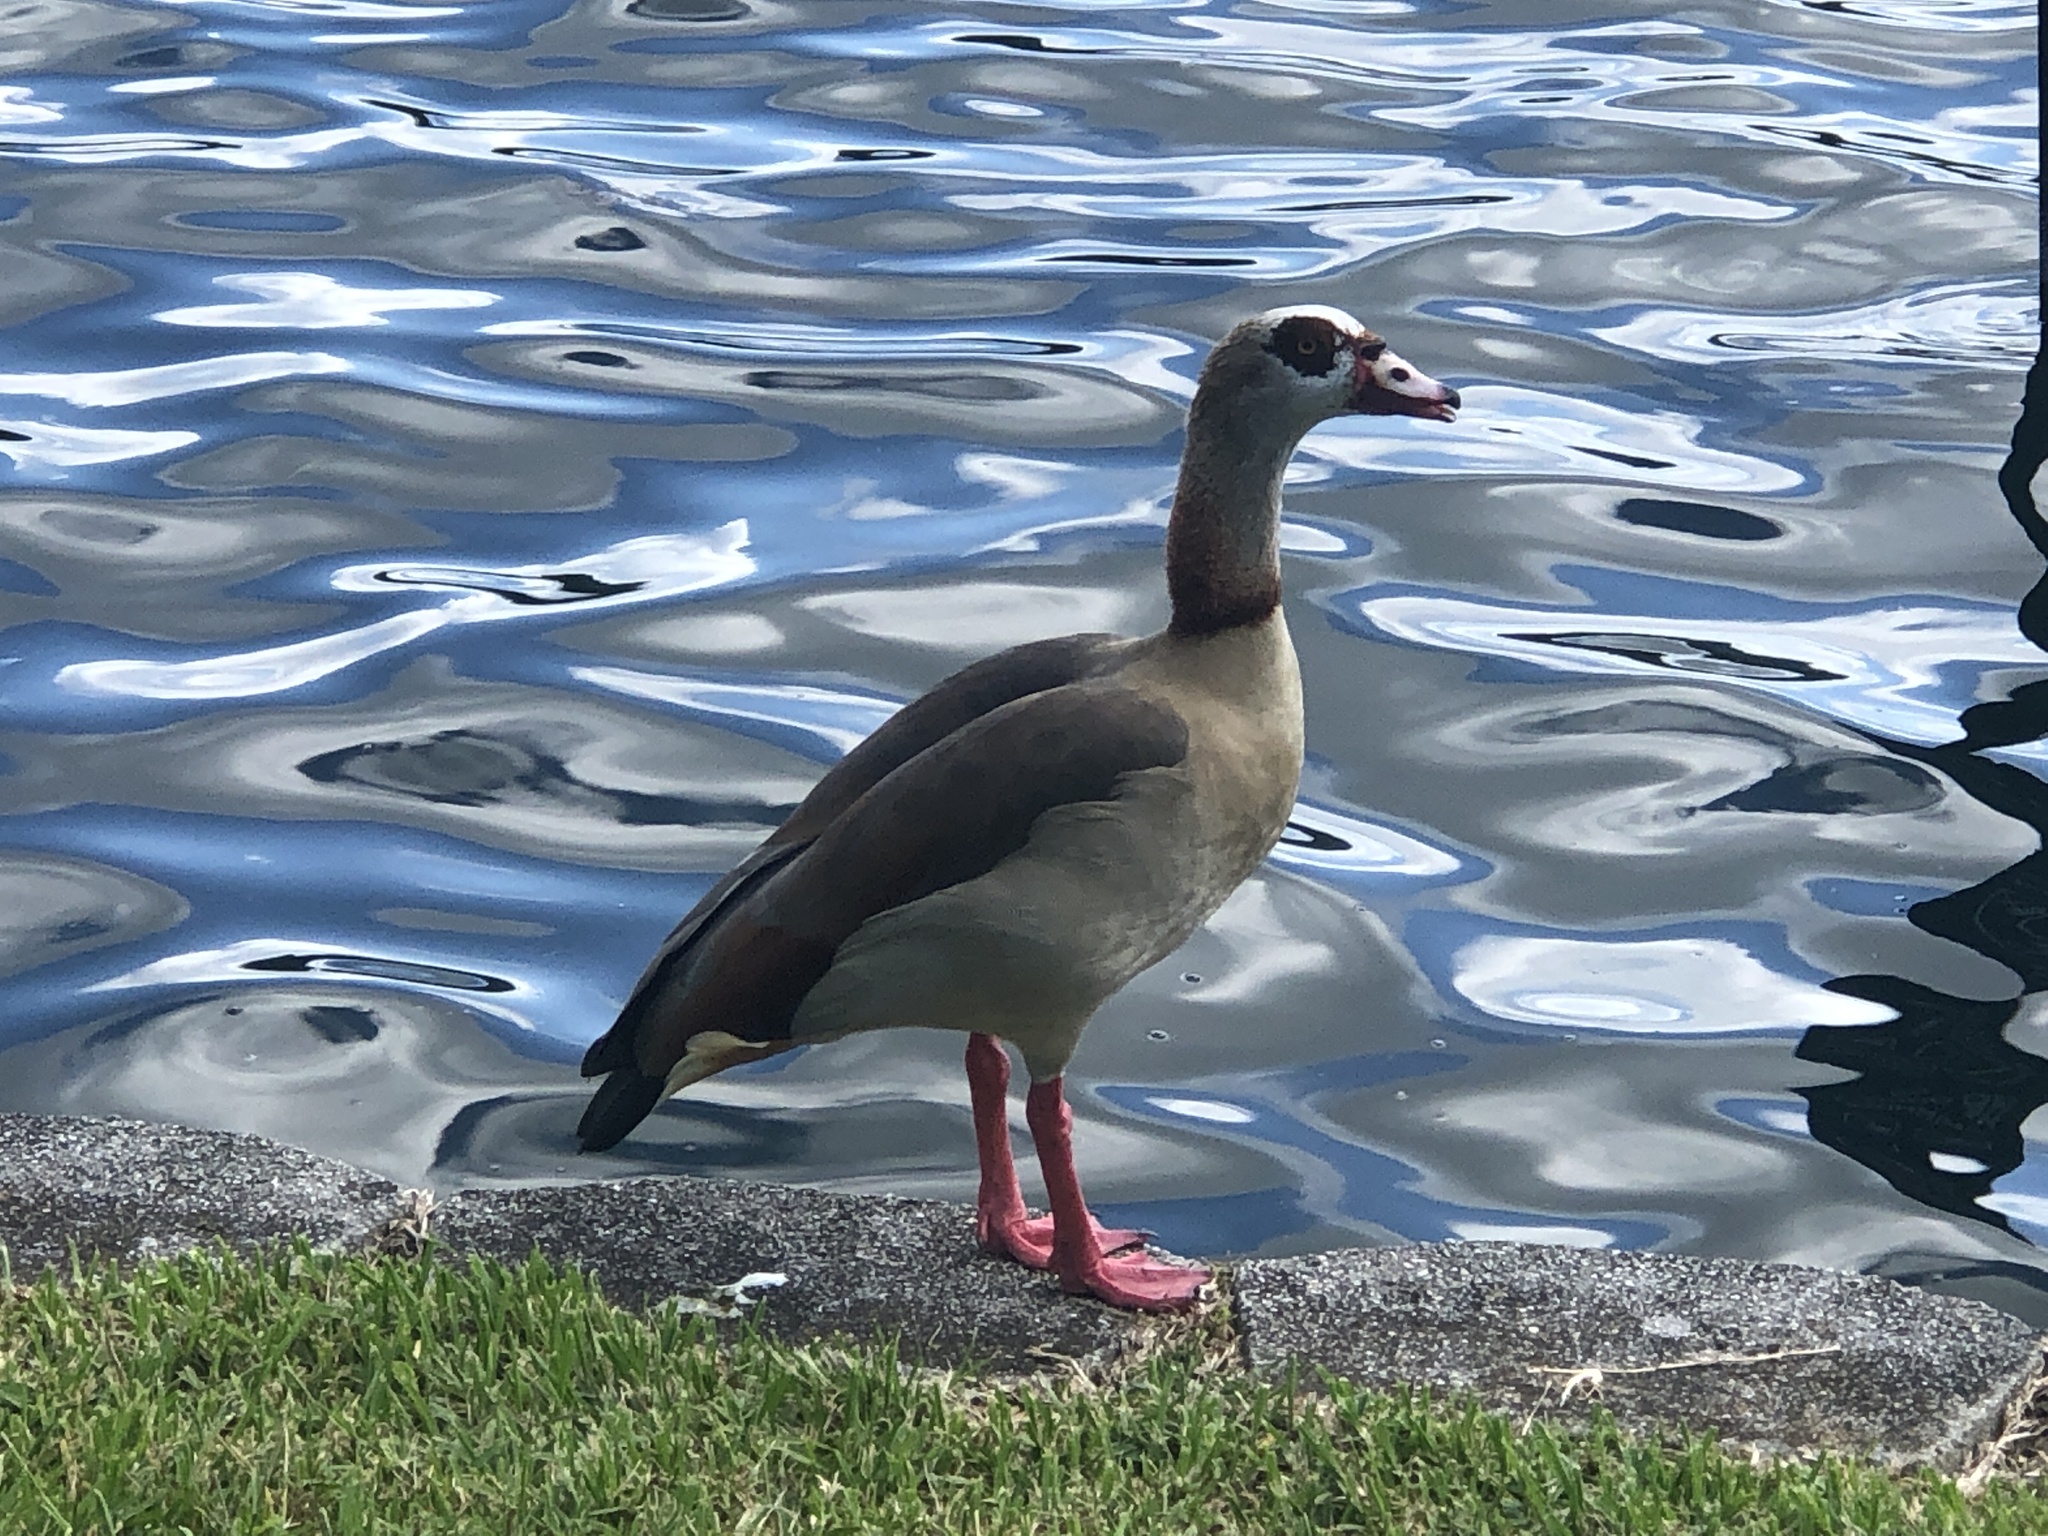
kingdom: Animalia
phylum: Chordata
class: Aves
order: Anseriformes
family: Anatidae
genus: Alopochen
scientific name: Alopochen aegyptiaca
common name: Egyptian goose
